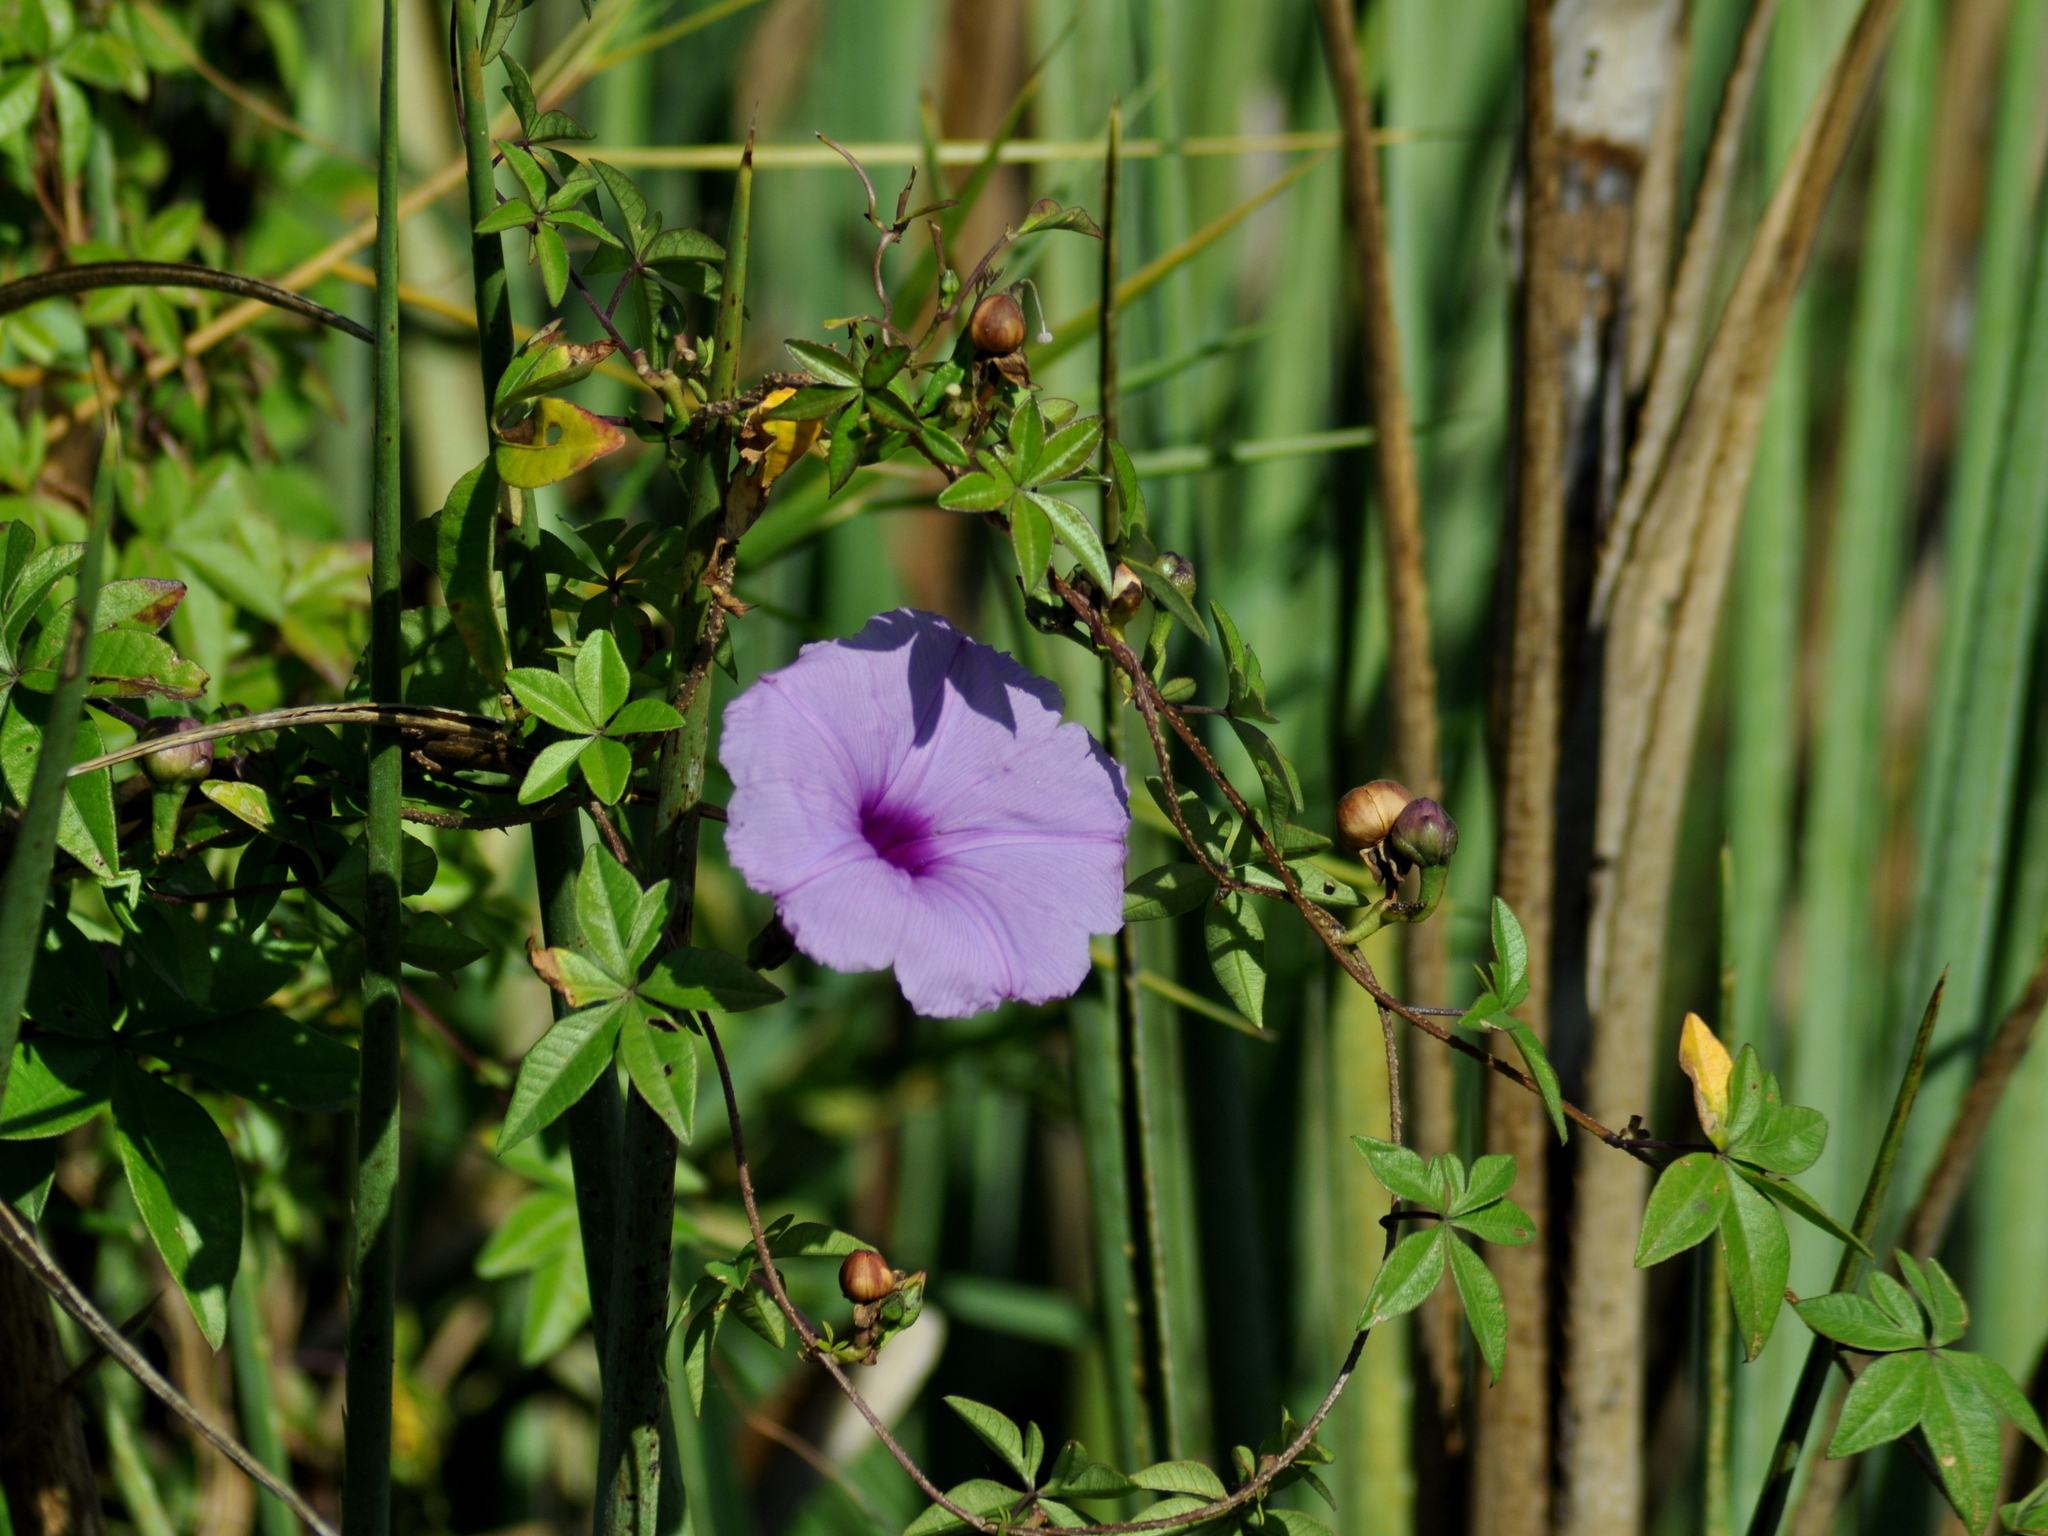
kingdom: Plantae
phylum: Tracheophyta
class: Magnoliopsida
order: Solanales
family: Convolvulaceae
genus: Ipomoea
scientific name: Ipomoea cairica
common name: Mile a minute vine
